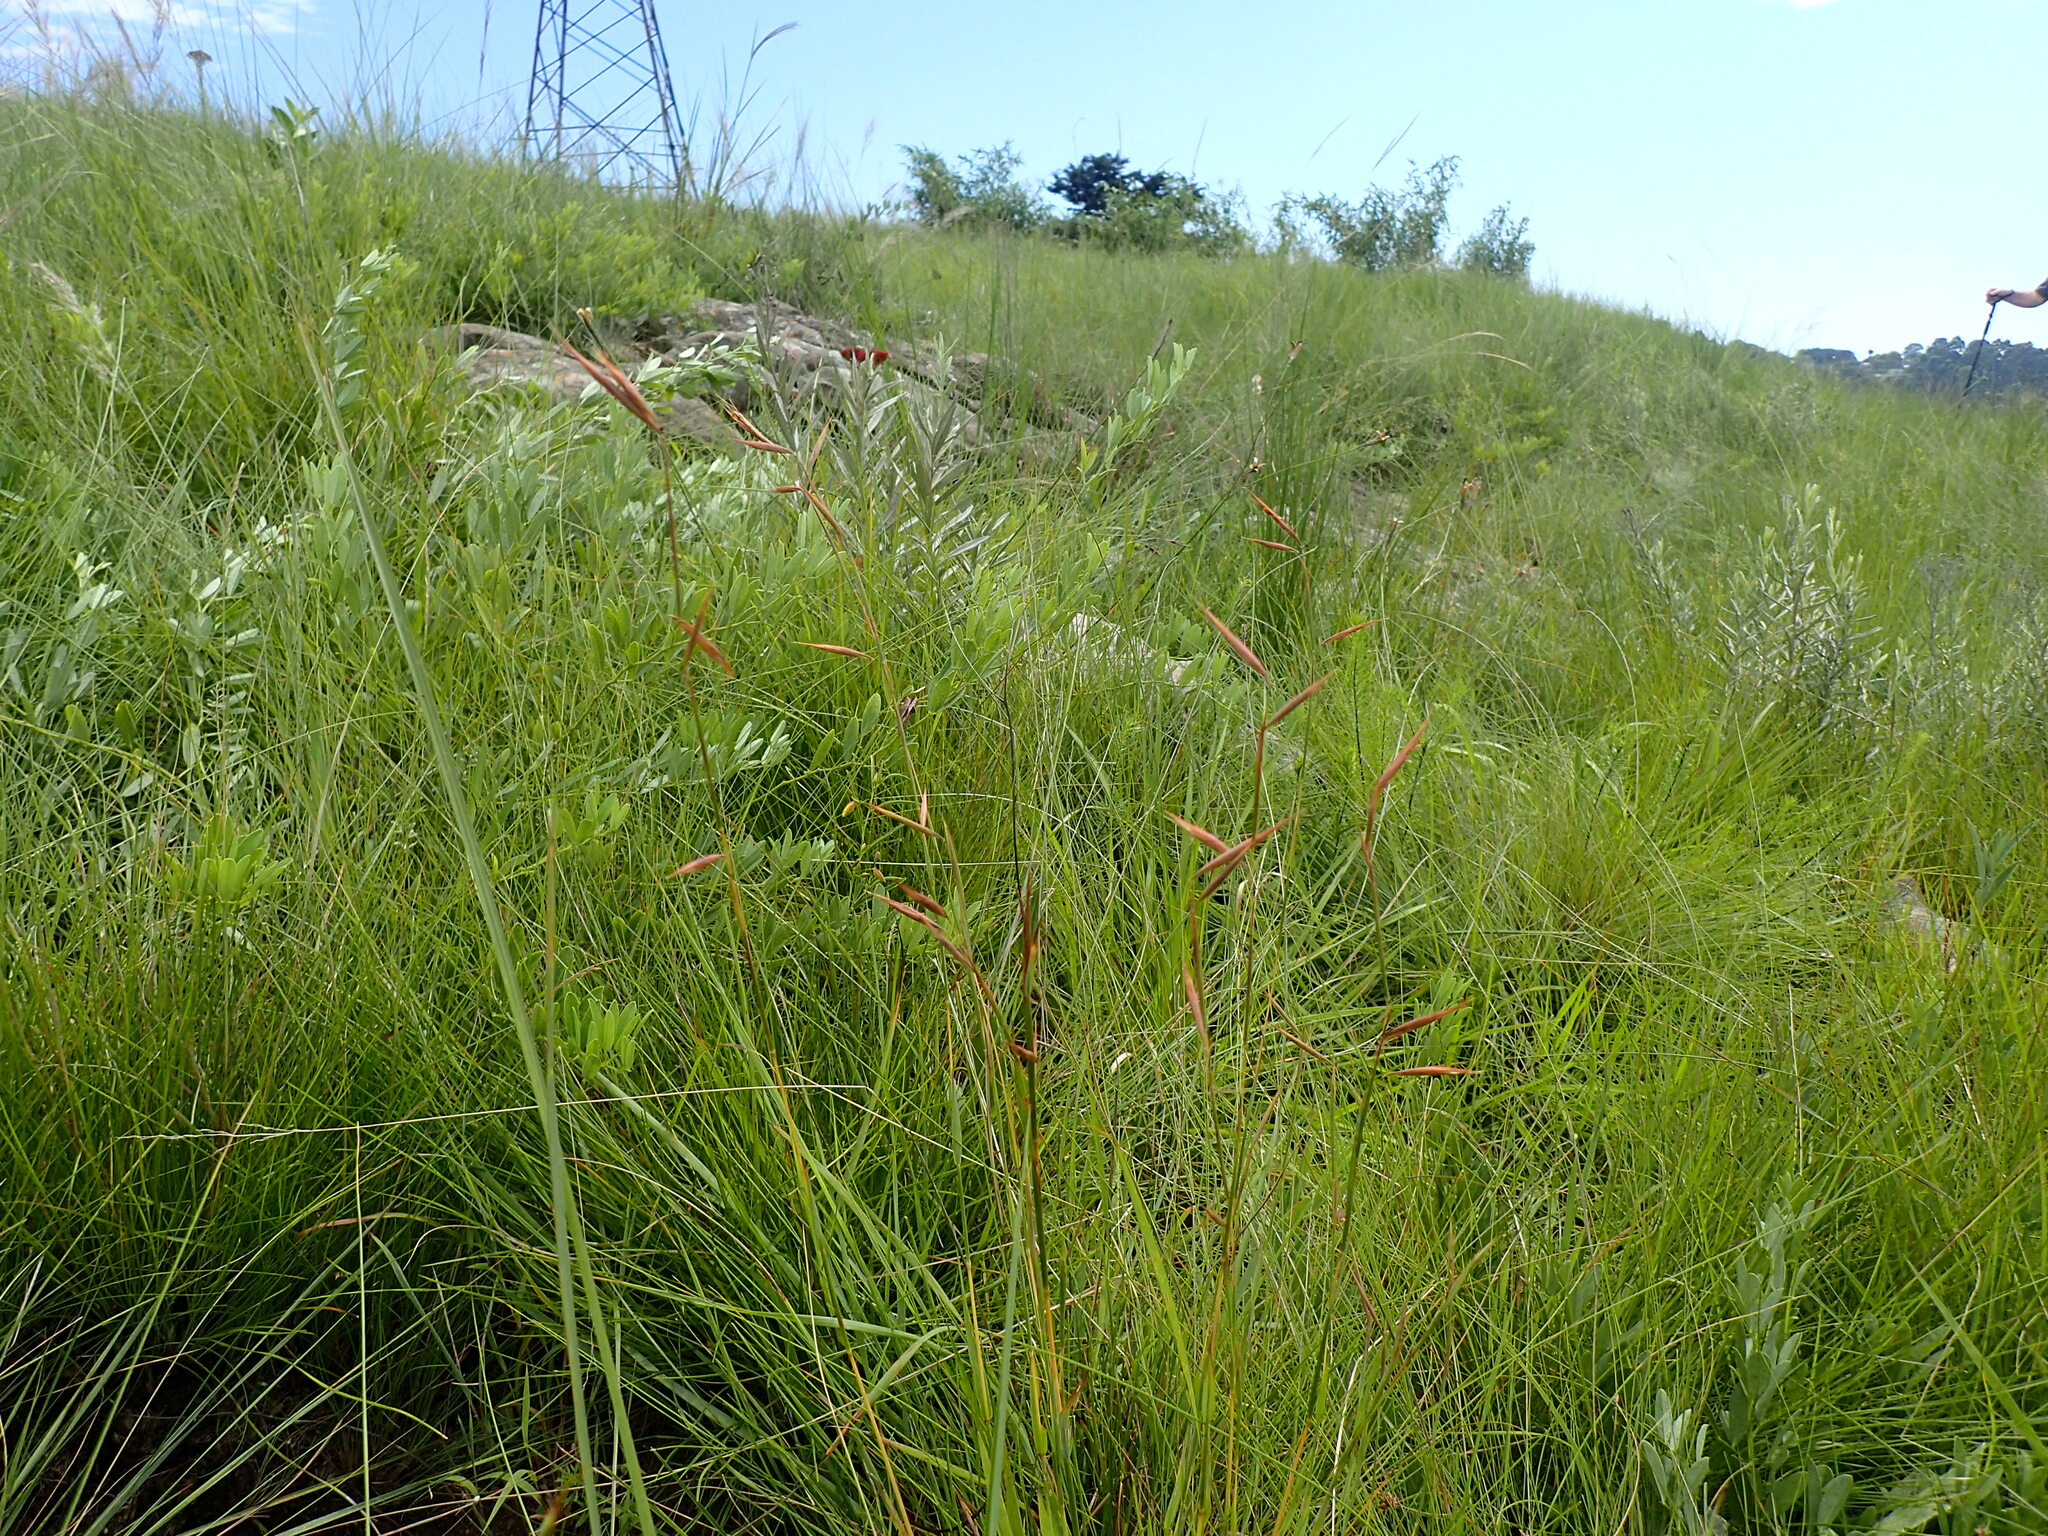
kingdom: Plantae
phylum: Tracheophyta
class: Liliopsida
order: Poales
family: Poaceae
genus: Monocymbium
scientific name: Monocymbium ceresiiforme
